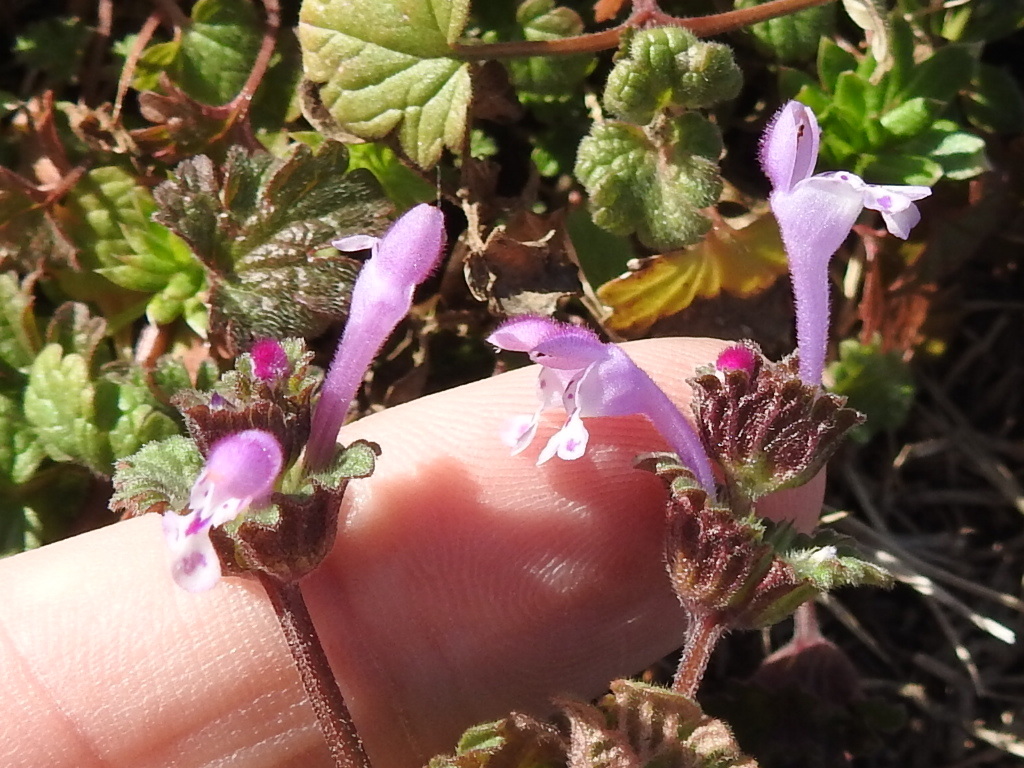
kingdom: Plantae
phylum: Tracheophyta
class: Magnoliopsida
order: Lamiales
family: Lamiaceae
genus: Lamium
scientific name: Lamium amplexicaule
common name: Henbit dead-nettle
